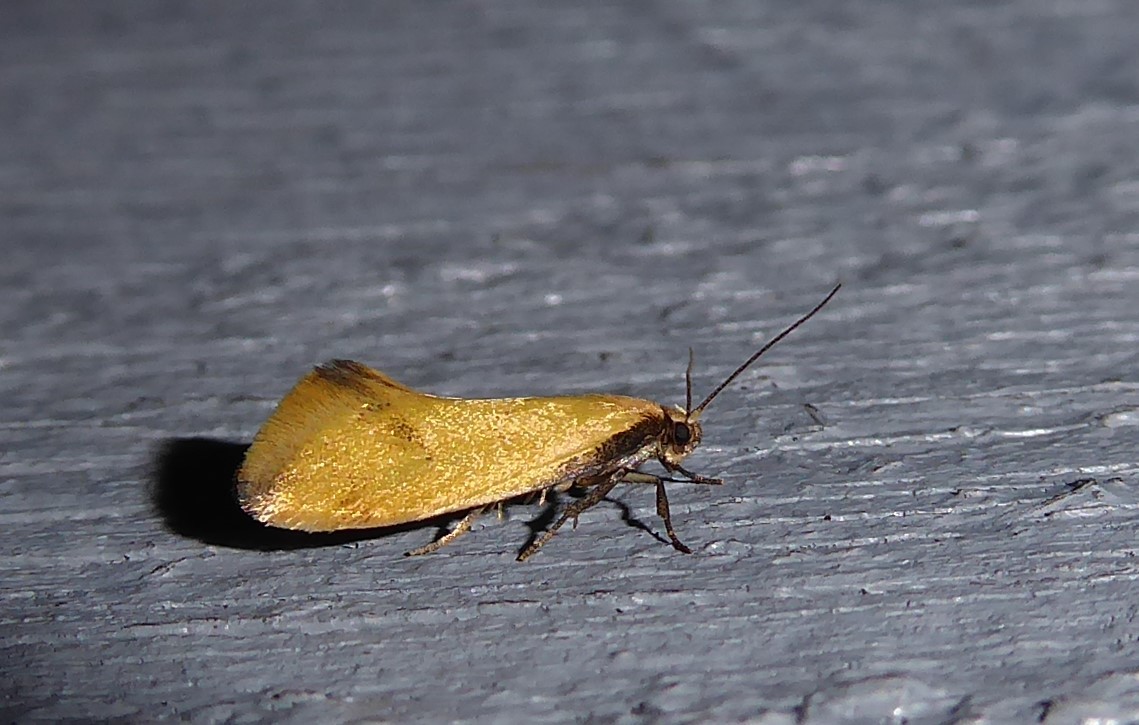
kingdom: Animalia
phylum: Arthropoda
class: Insecta
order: Lepidoptera
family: Oecophoridae
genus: Tingena
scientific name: Tingena actinias
